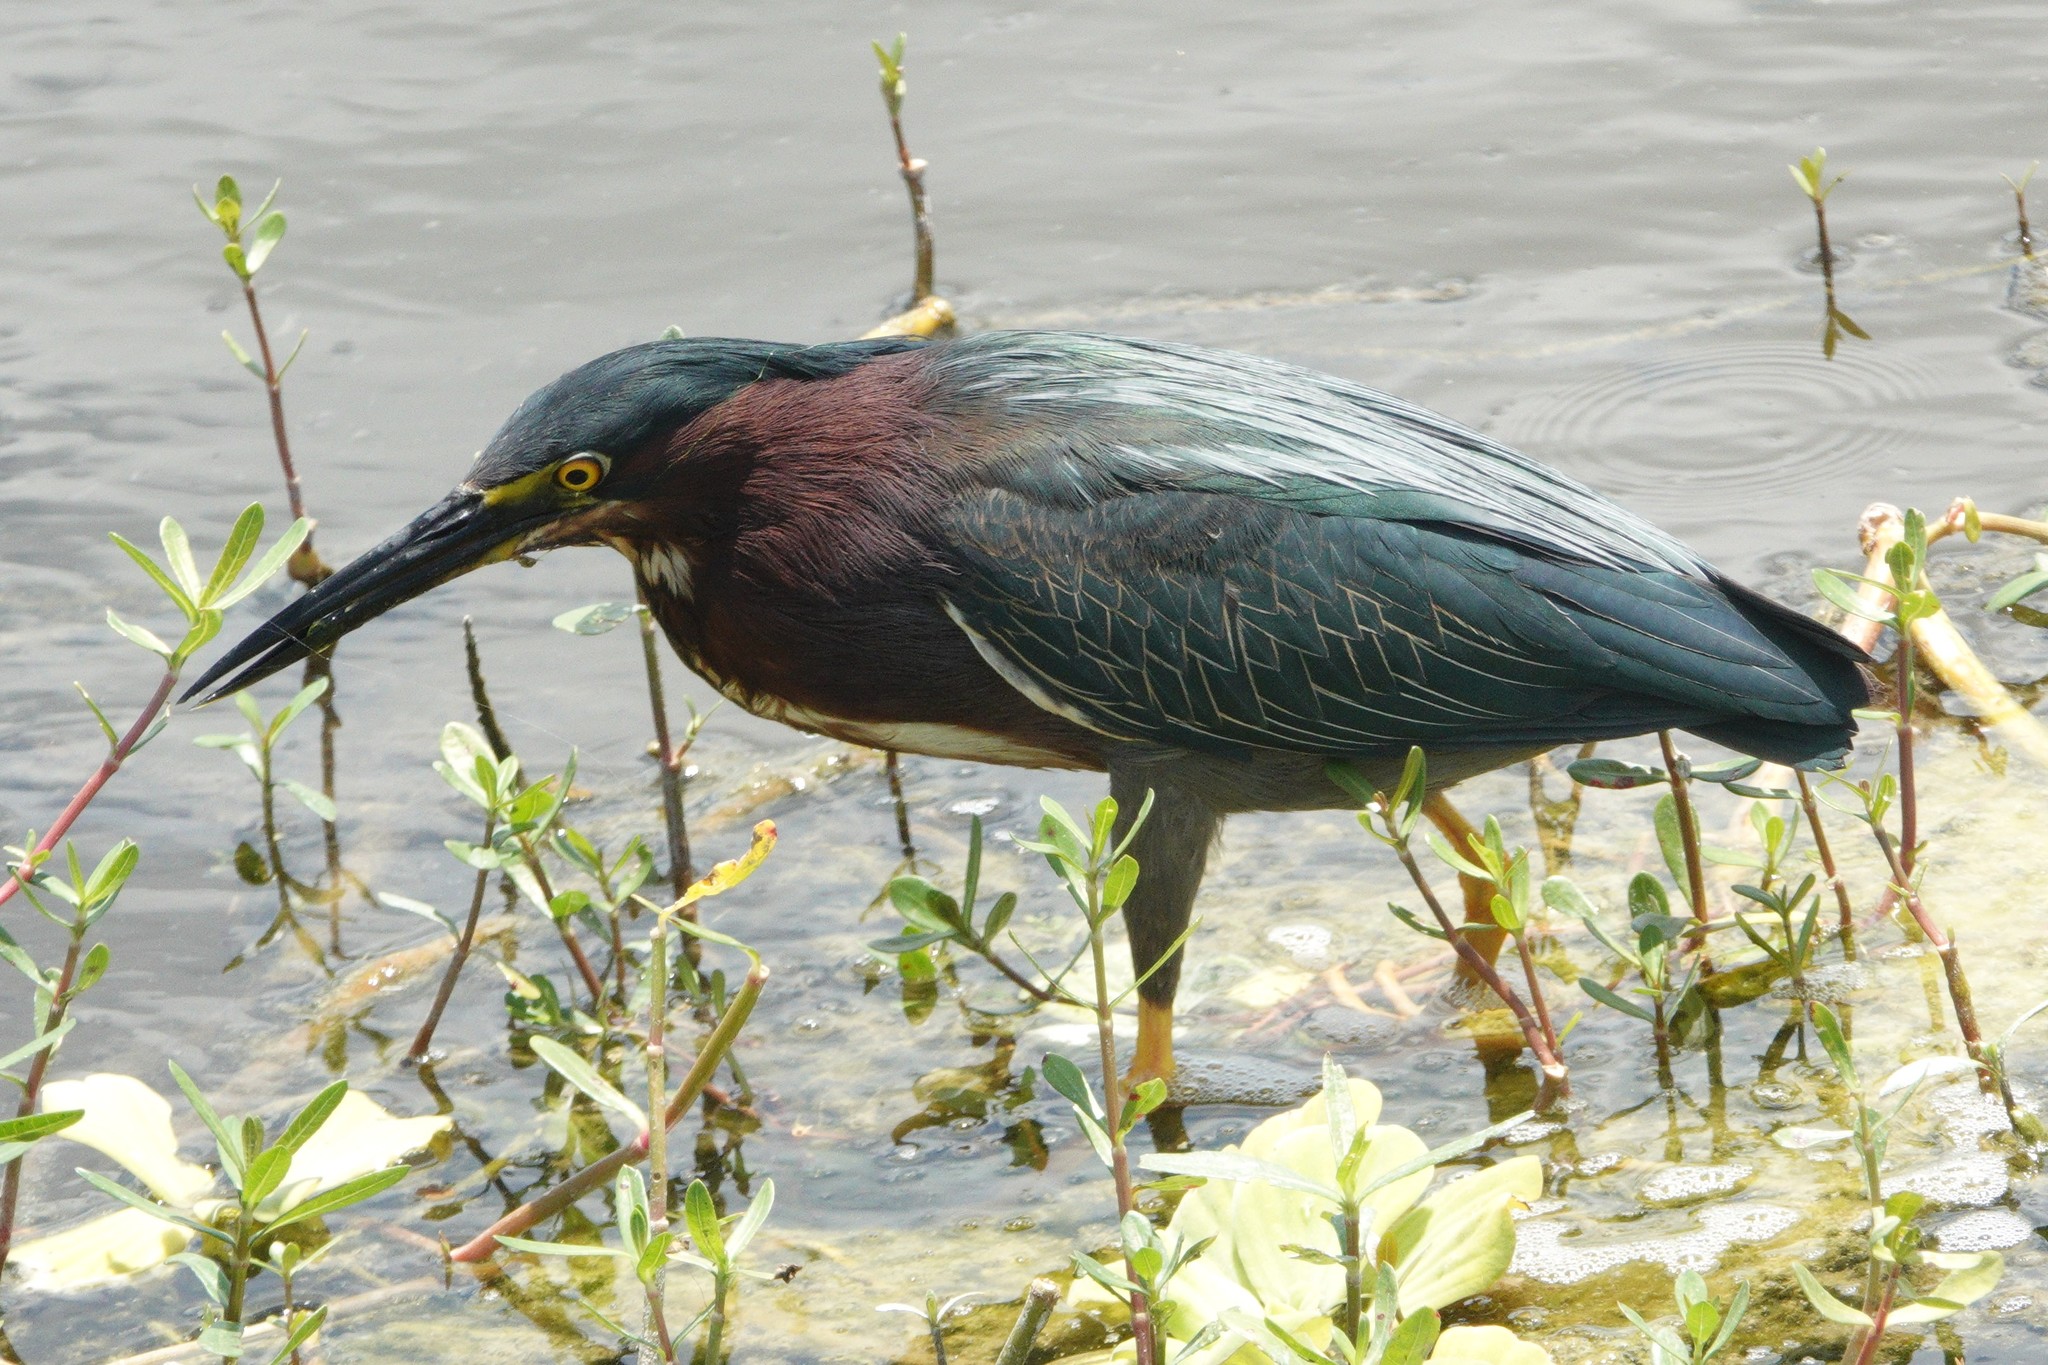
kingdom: Animalia
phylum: Chordata
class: Aves
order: Pelecaniformes
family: Ardeidae
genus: Butorides
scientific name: Butorides virescens
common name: Green heron
